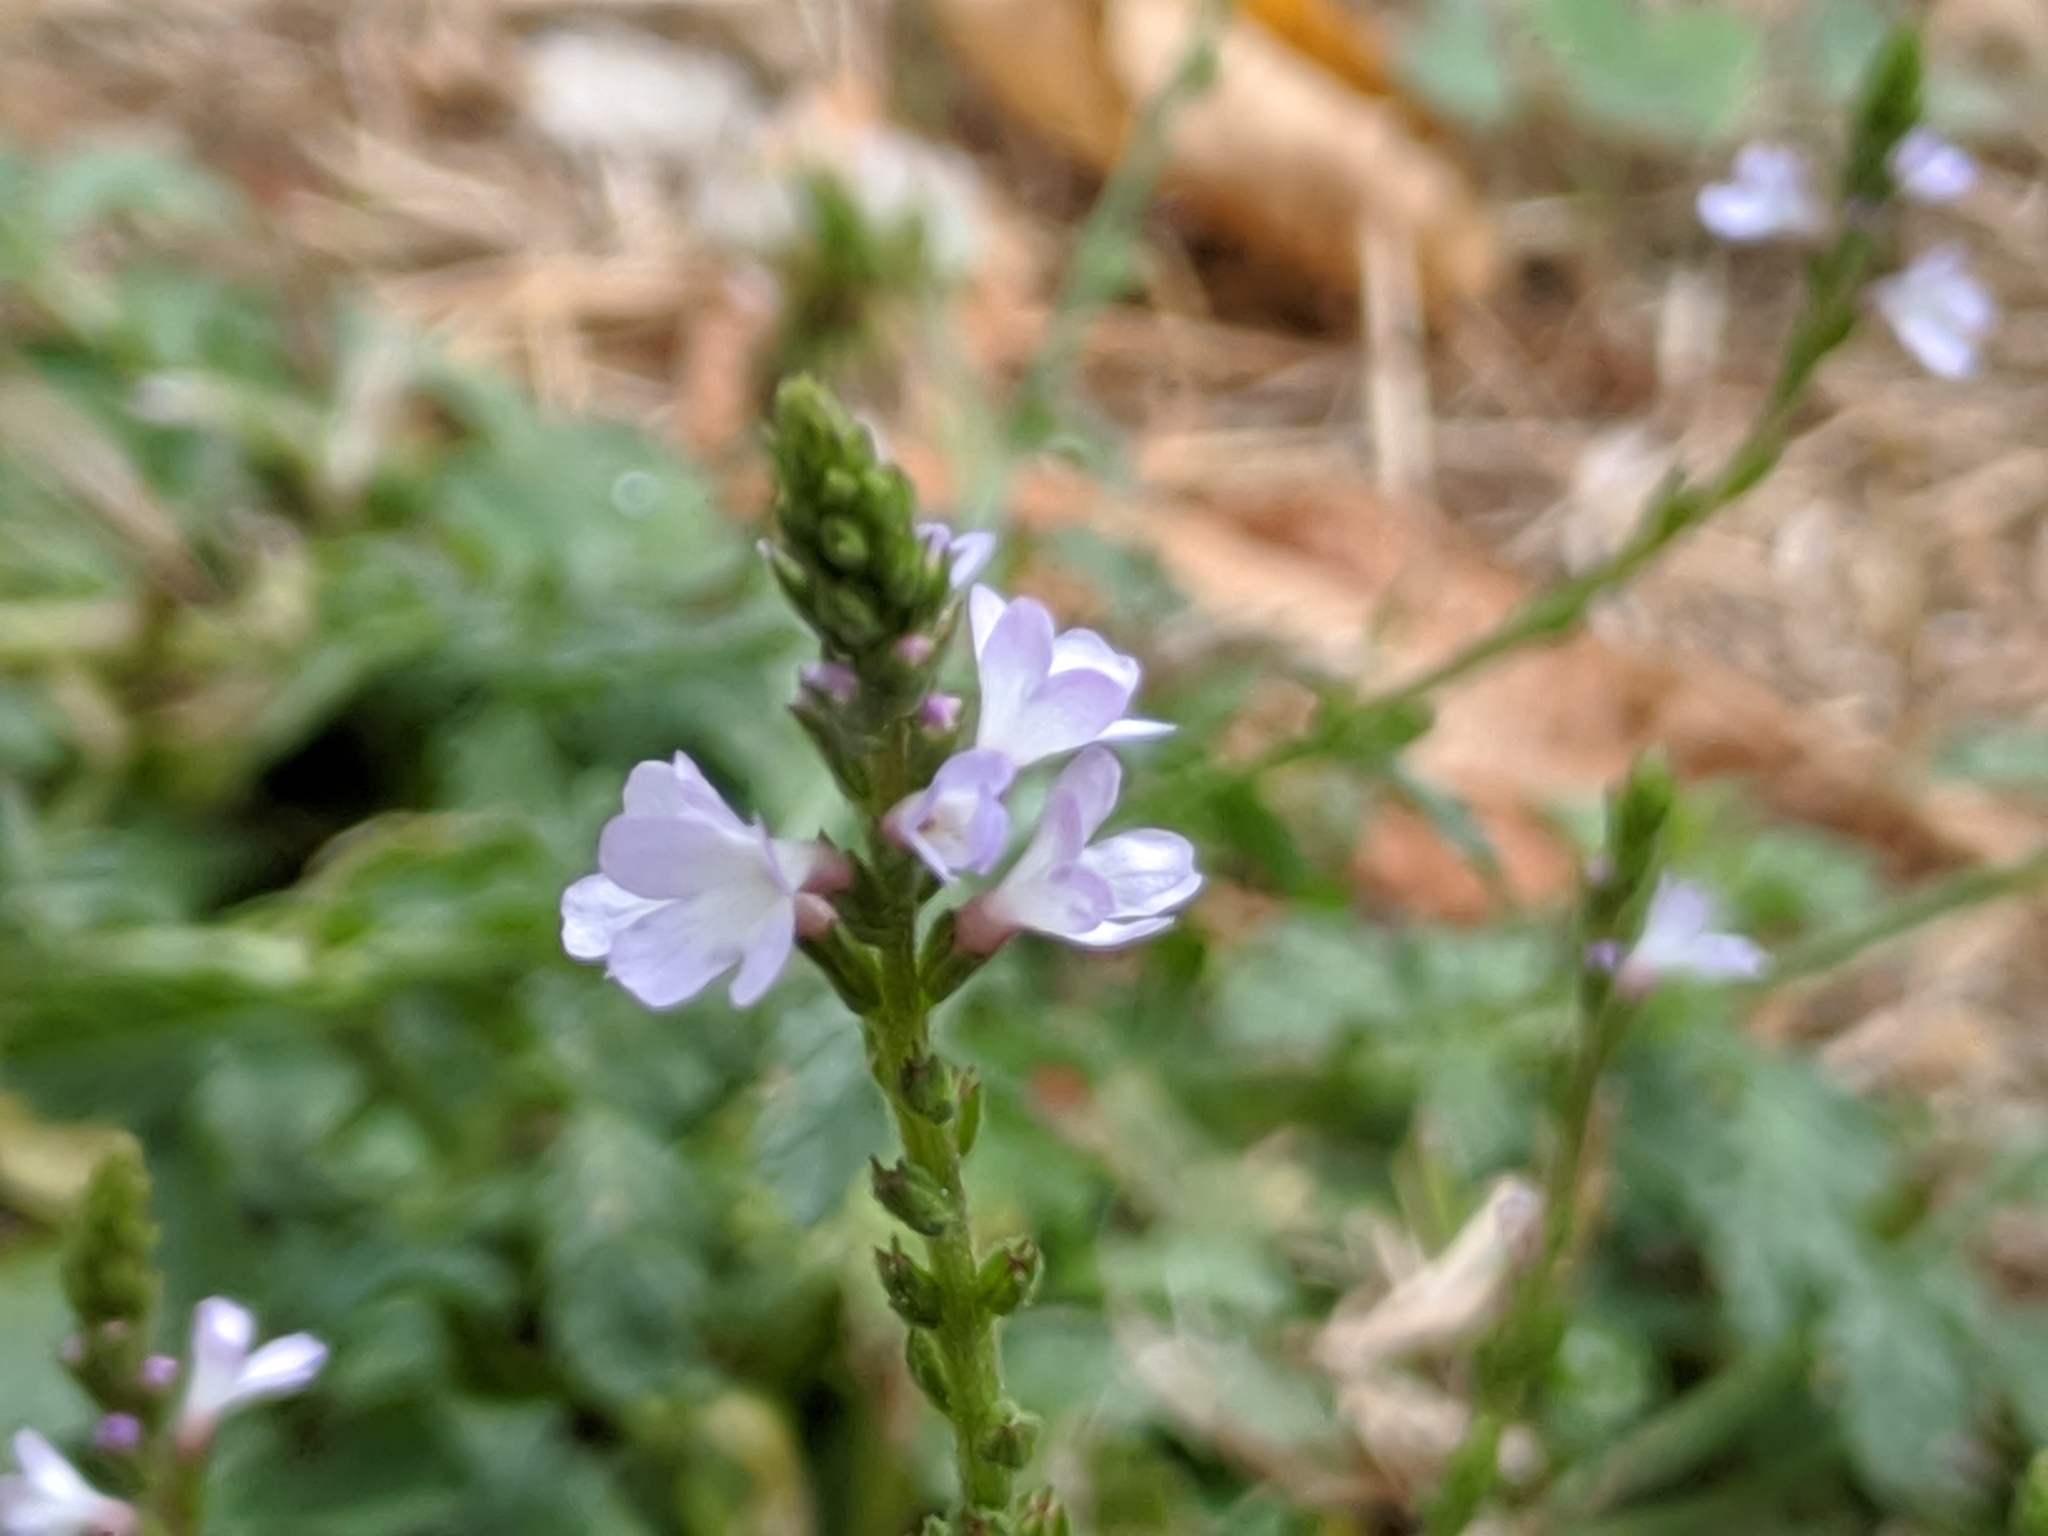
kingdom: Plantae
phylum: Tracheophyta
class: Magnoliopsida
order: Lamiales
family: Verbenaceae
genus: Verbena
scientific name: Verbena officinalis
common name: Vervain
